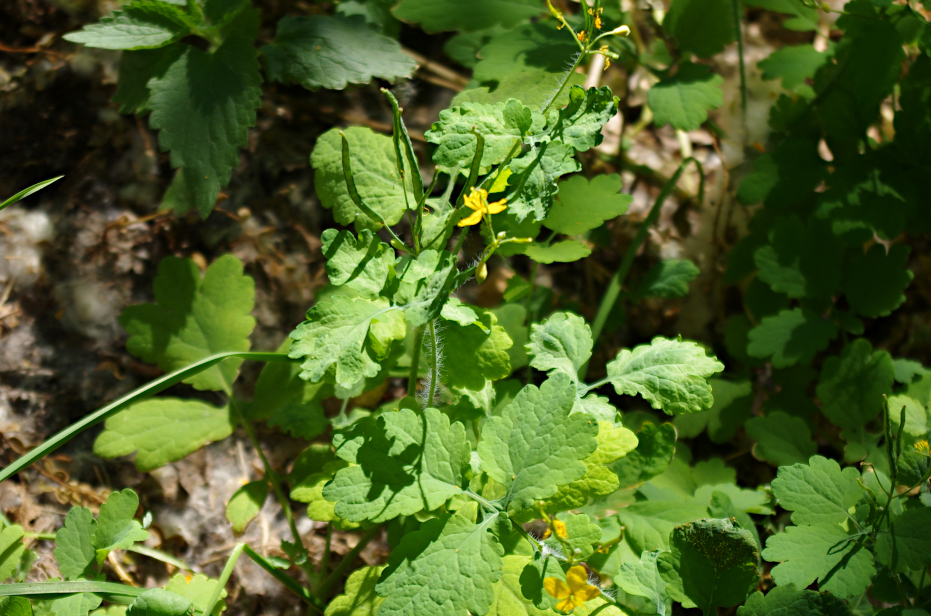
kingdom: Plantae
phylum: Tracheophyta
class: Magnoliopsida
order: Ranunculales
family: Papaveraceae
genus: Chelidonium
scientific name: Chelidonium majus
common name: Greater celandine
